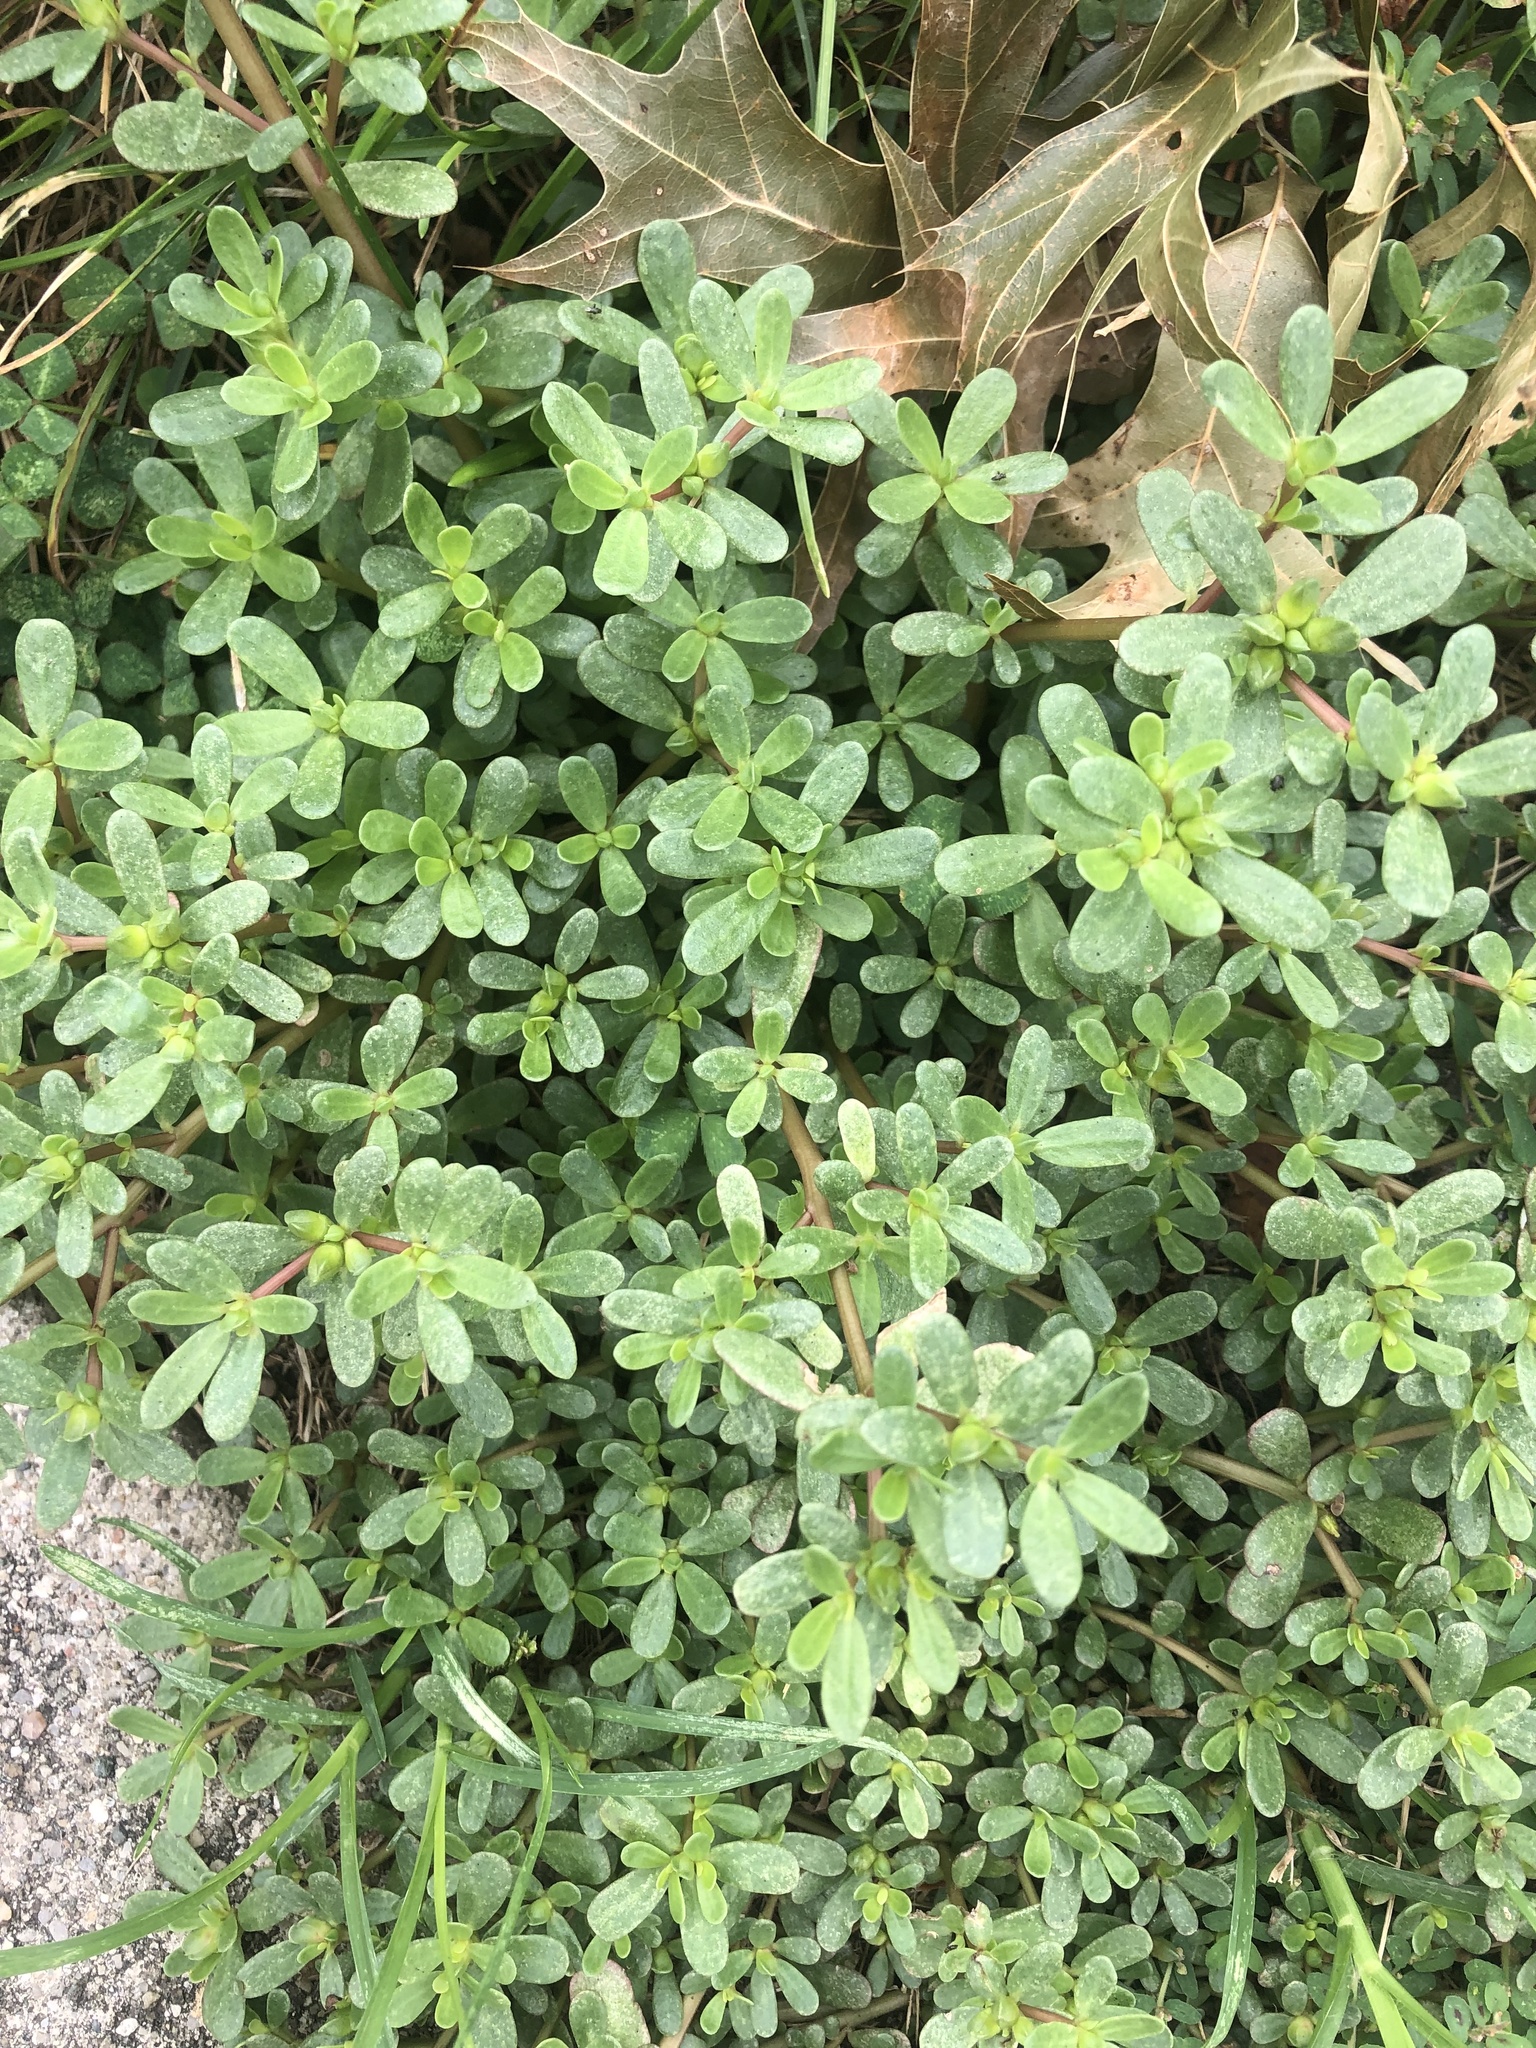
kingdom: Plantae
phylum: Tracheophyta
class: Magnoliopsida
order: Caryophyllales
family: Portulacaceae
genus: Portulaca
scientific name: Portulaca oleracea
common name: Common purslane
